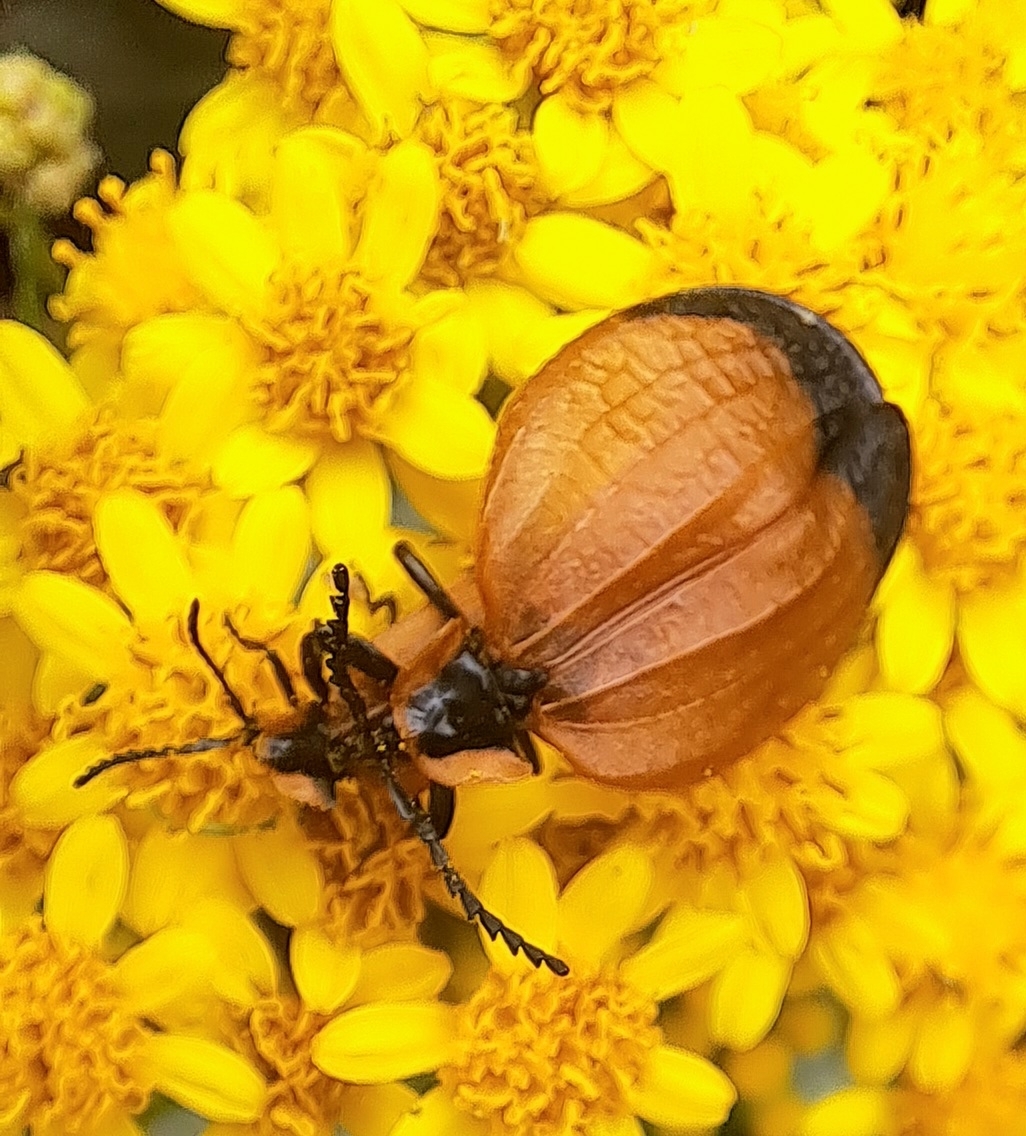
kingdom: Animalia
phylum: Arthropoda
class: Insecta
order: Coleoptera
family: Lycidae
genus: Lycus
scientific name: Lycus
